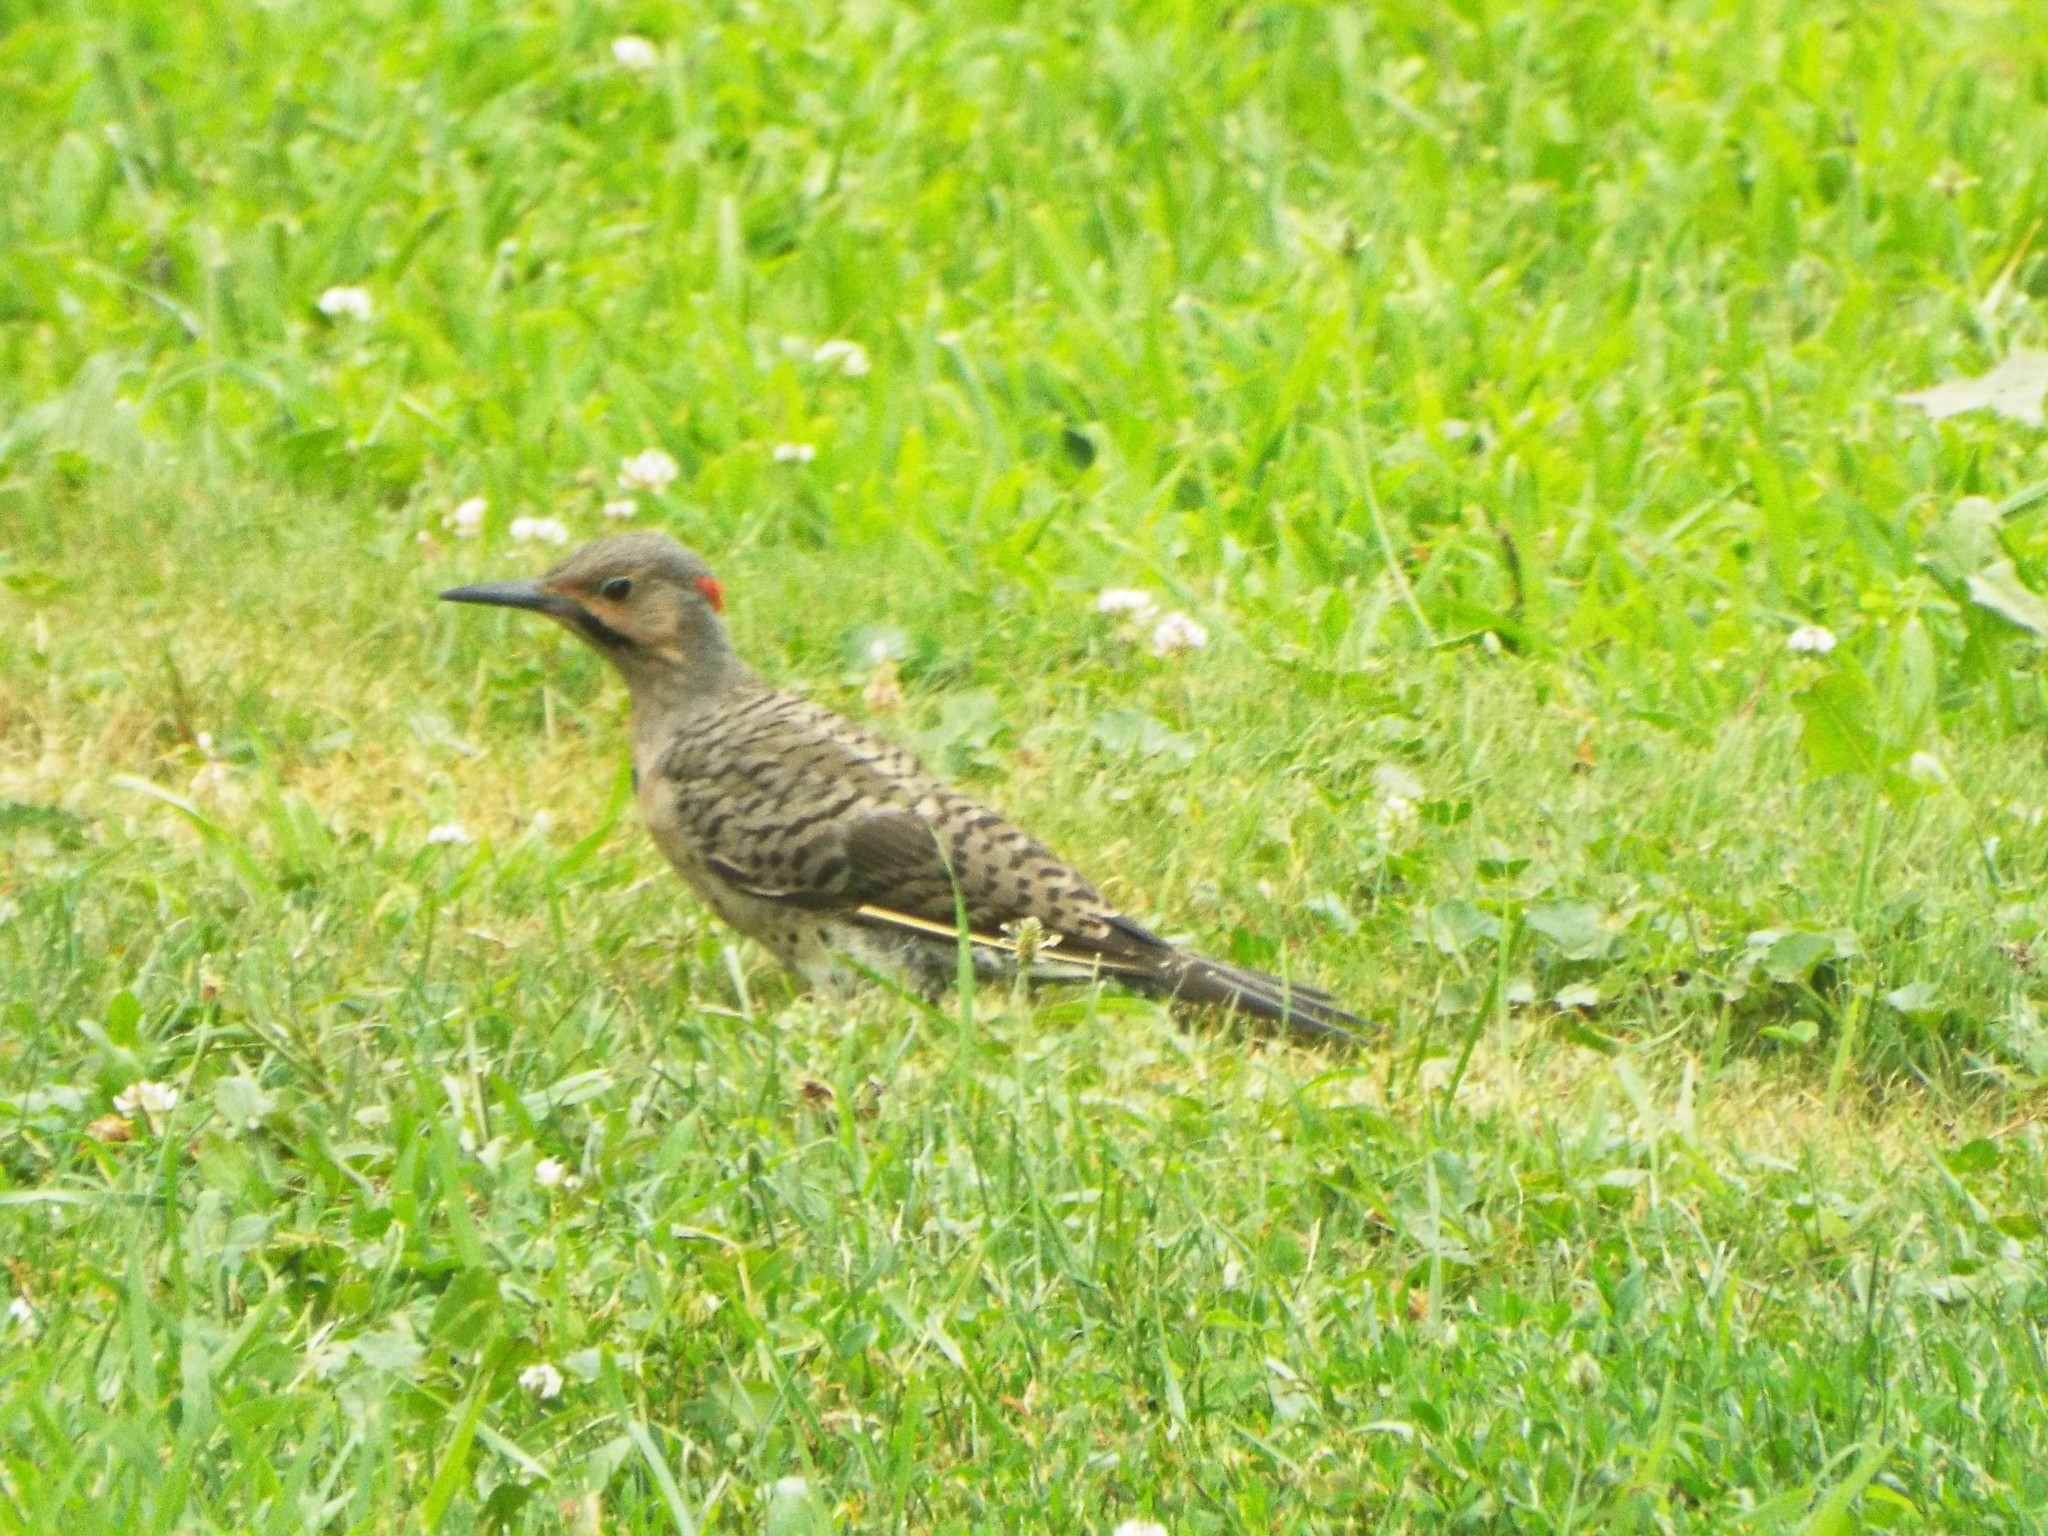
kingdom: Animalia
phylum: Chordata
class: Aves
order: Piciformes
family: Picidae
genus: Colaptes
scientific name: Colaptes auratus
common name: Northern flicker
